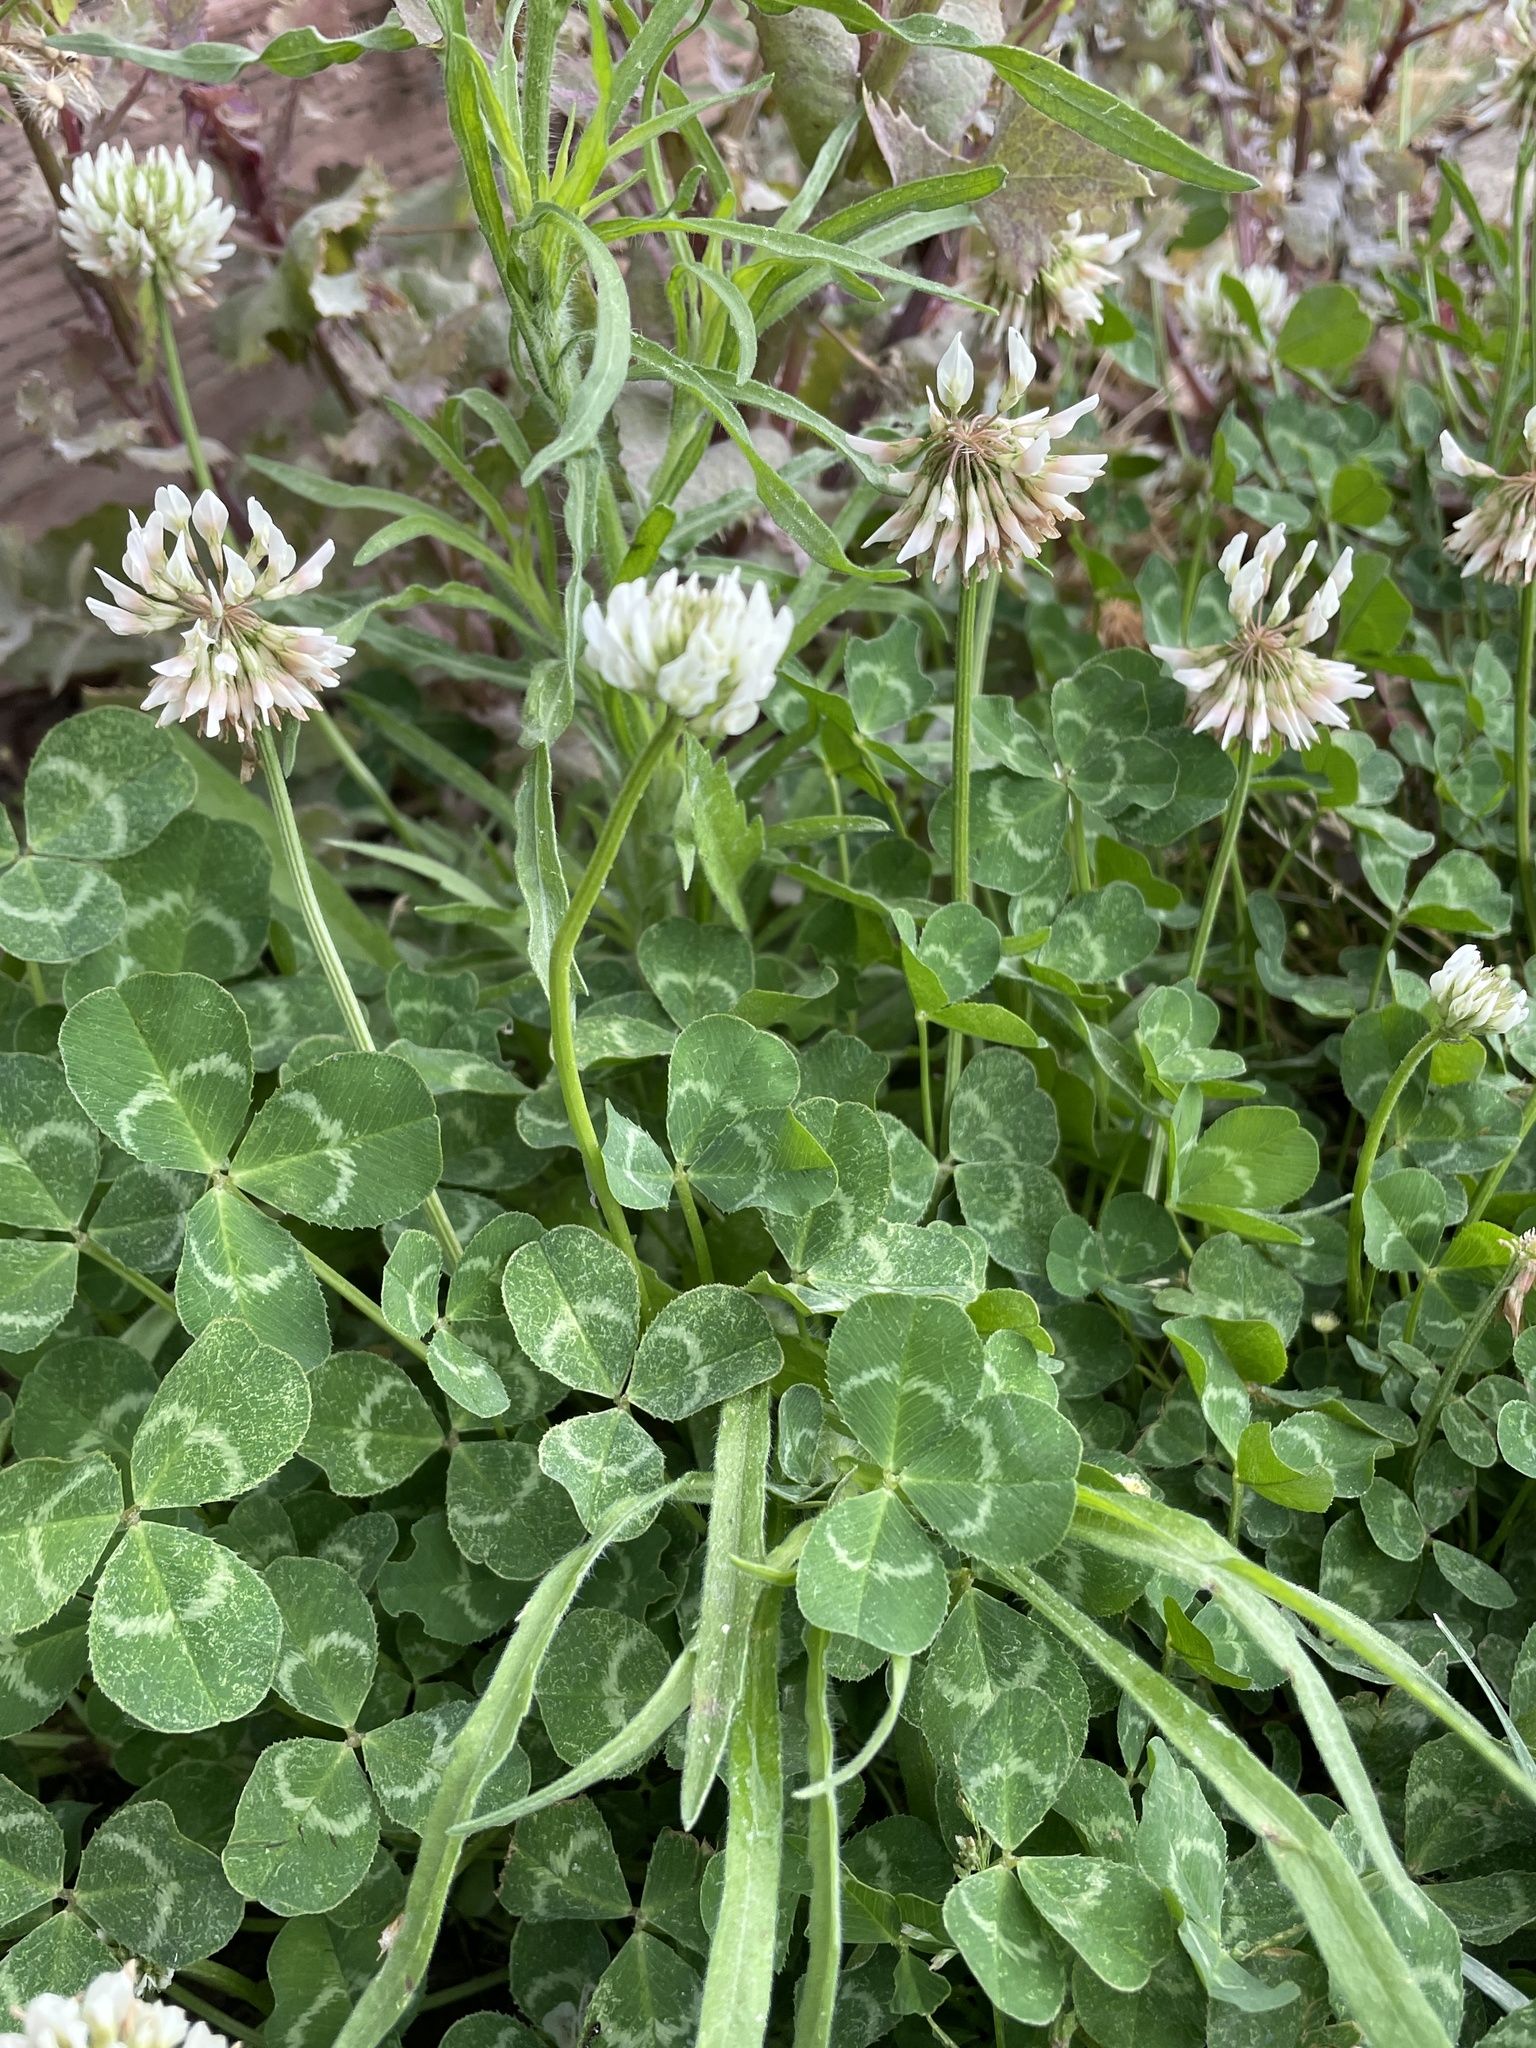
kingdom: Plantae
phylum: Tracheophyta
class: Magnoliopsida
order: Fabales
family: Fabaceae
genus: Trifolium
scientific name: Trifolium repens
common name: White clover
